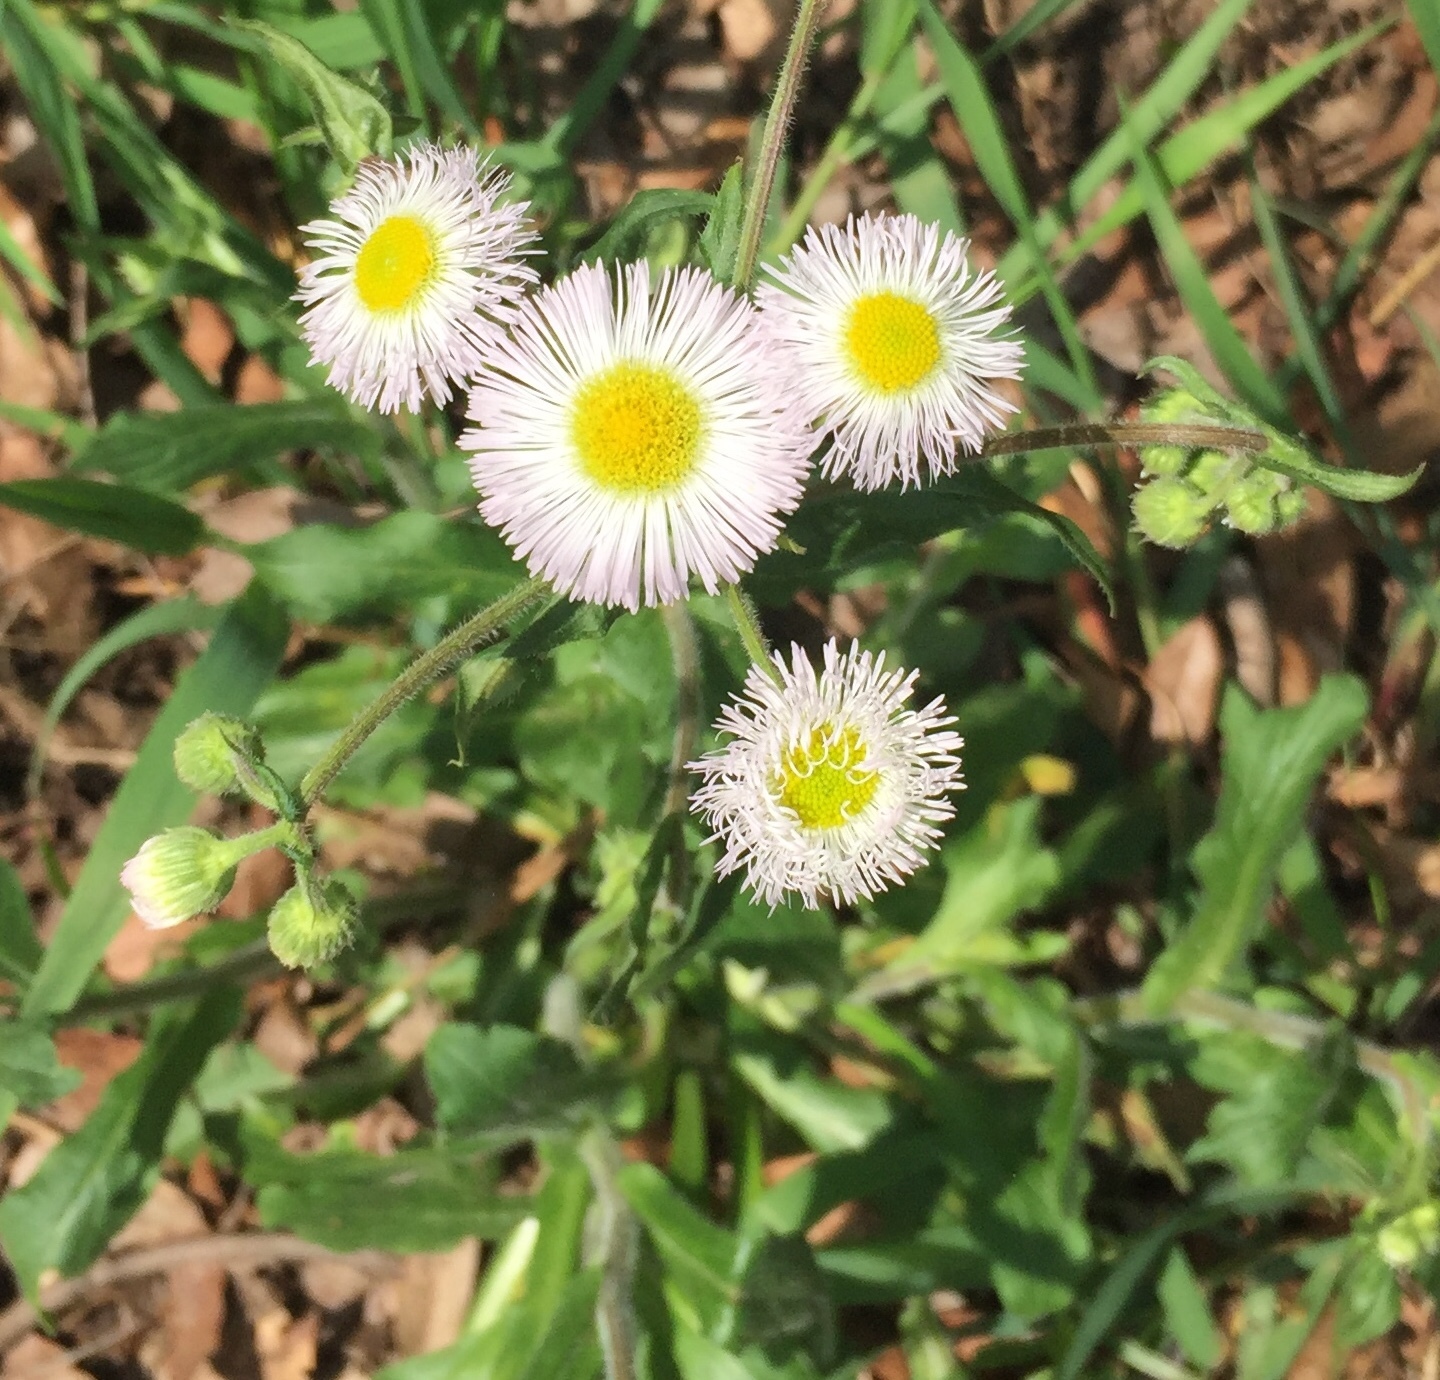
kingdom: Plantae
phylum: Tracheophyta
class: Magnoliopsida
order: Asterales
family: Asteraceae
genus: Erigeron
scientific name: Erigeron philadelphicus
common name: Robin's-plantain
